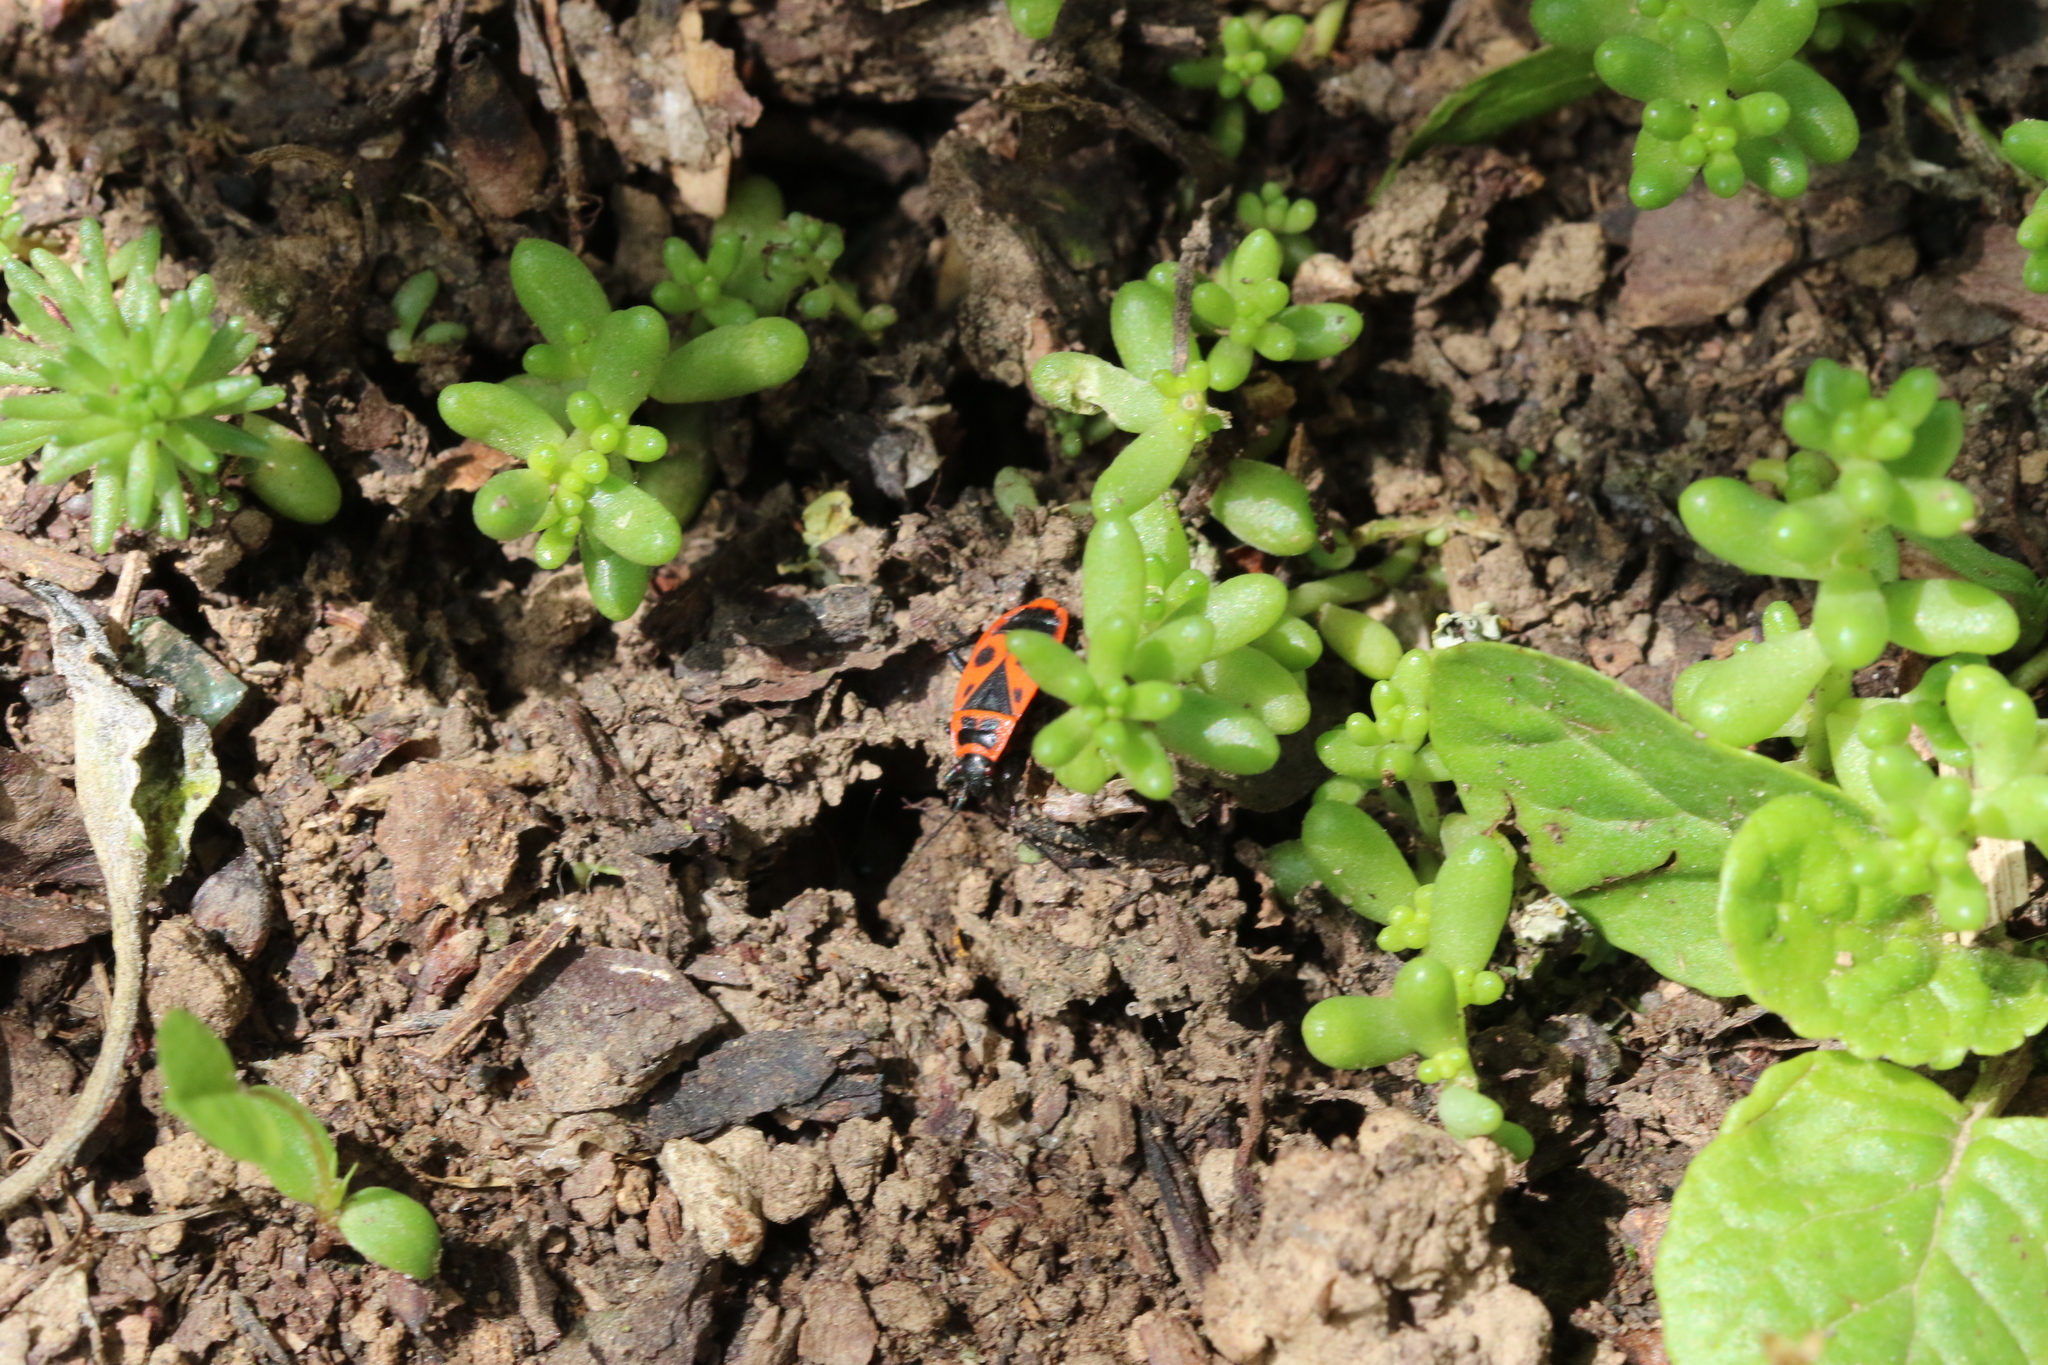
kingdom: Animalia
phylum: Arthropoda
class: Insecta
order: Hemiptera
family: Pyrrhocoridae
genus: Pyrrhocoris
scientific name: Pyrrhocoris apterus
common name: Firebug
